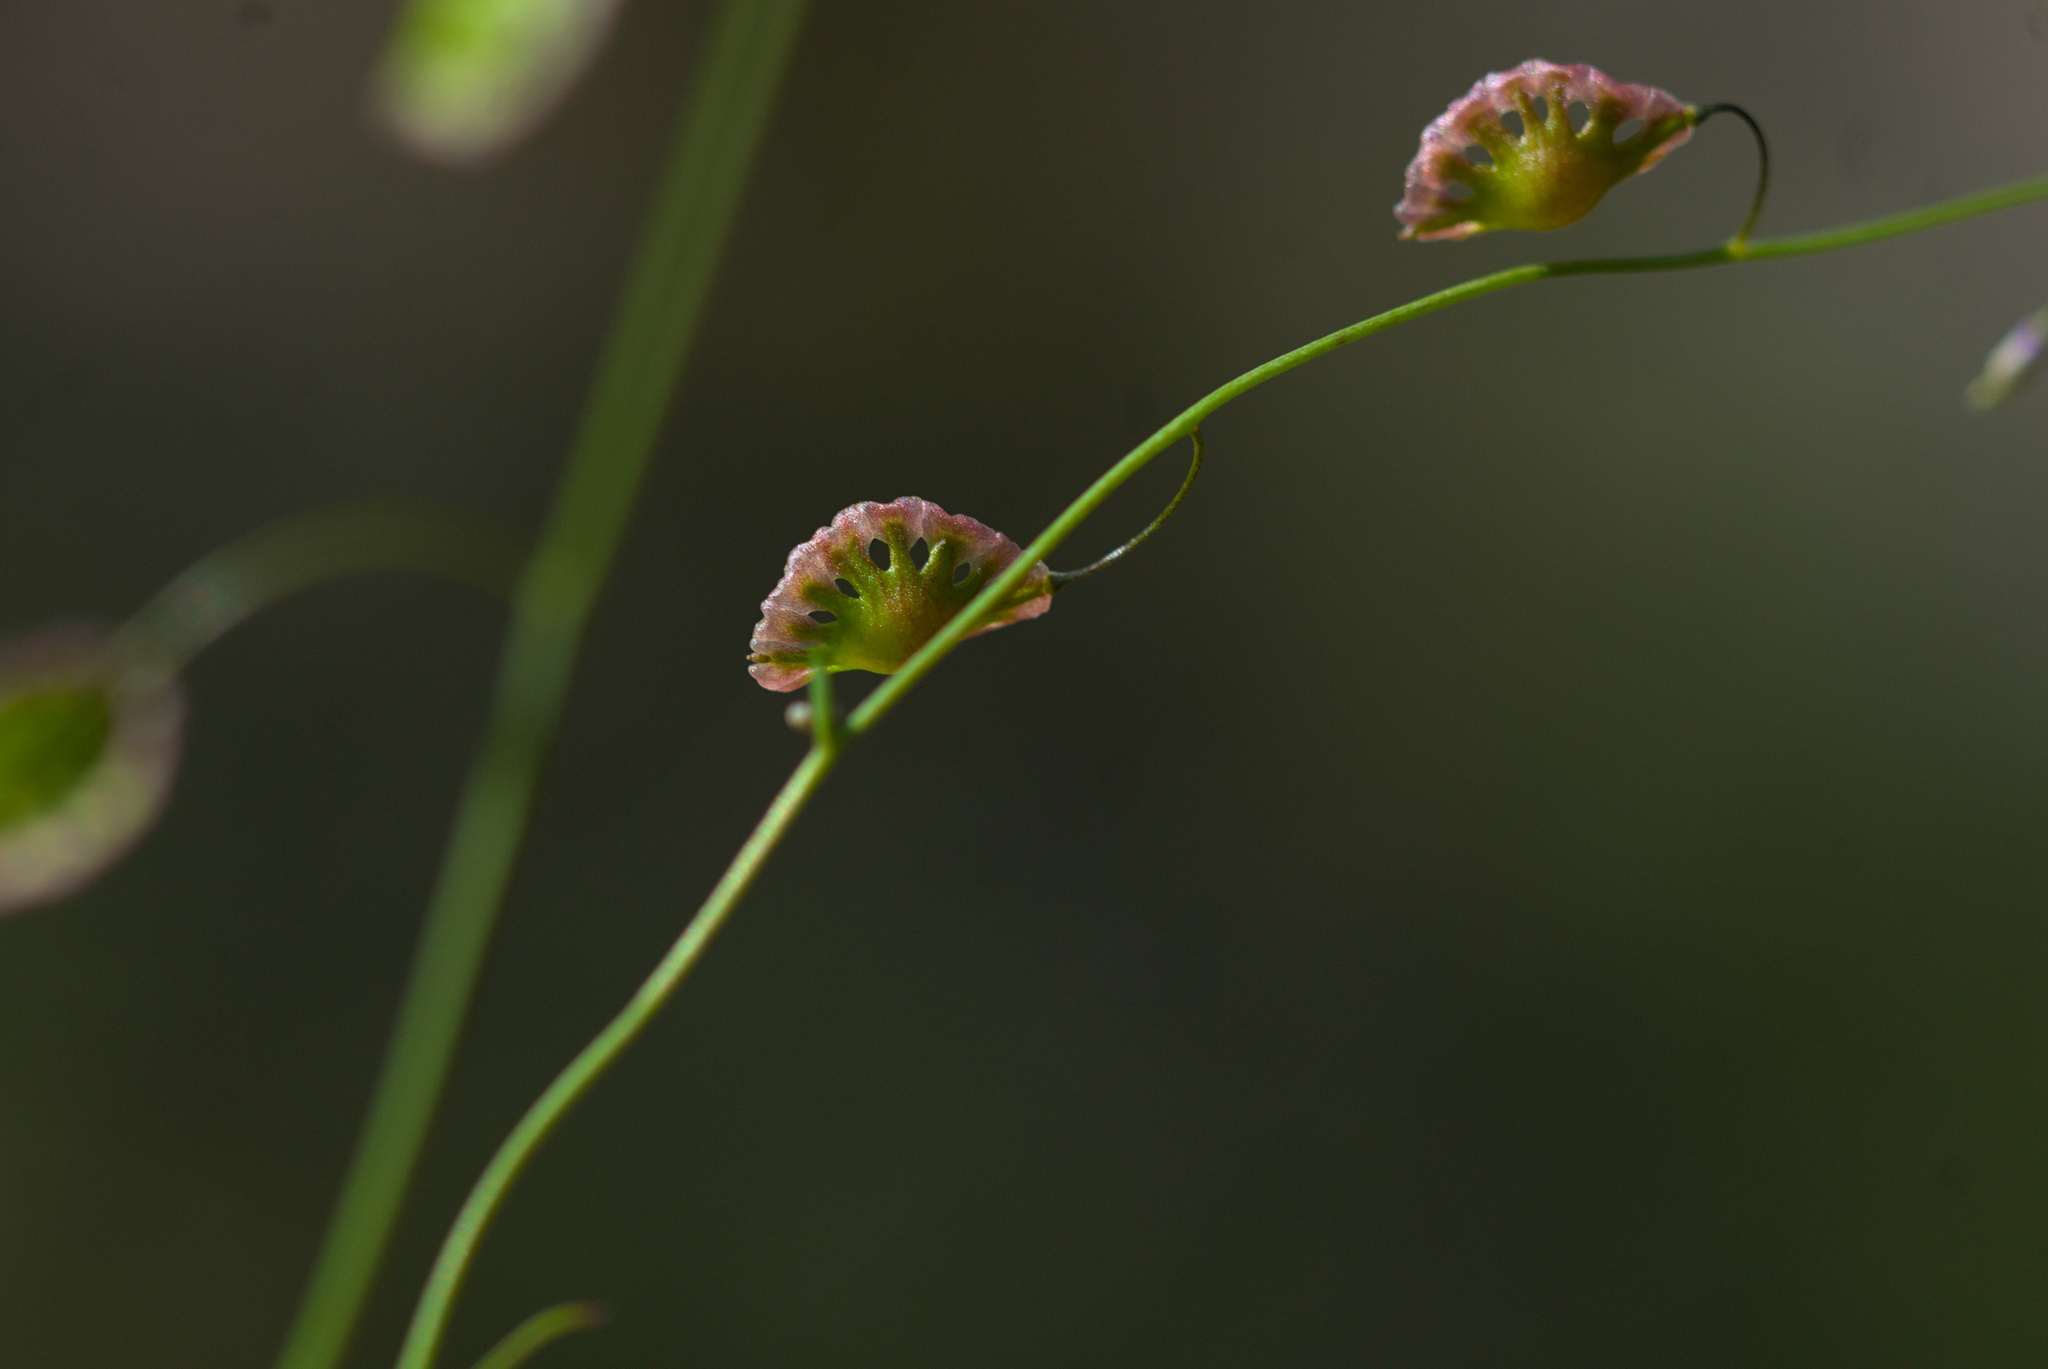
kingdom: Plantae
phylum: Tracheophyta
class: Magnoliopsida
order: Brassicales
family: Brassicaceae
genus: Thysanocarpus
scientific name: Thysanocarpus curvipes
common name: Sand fringepod
